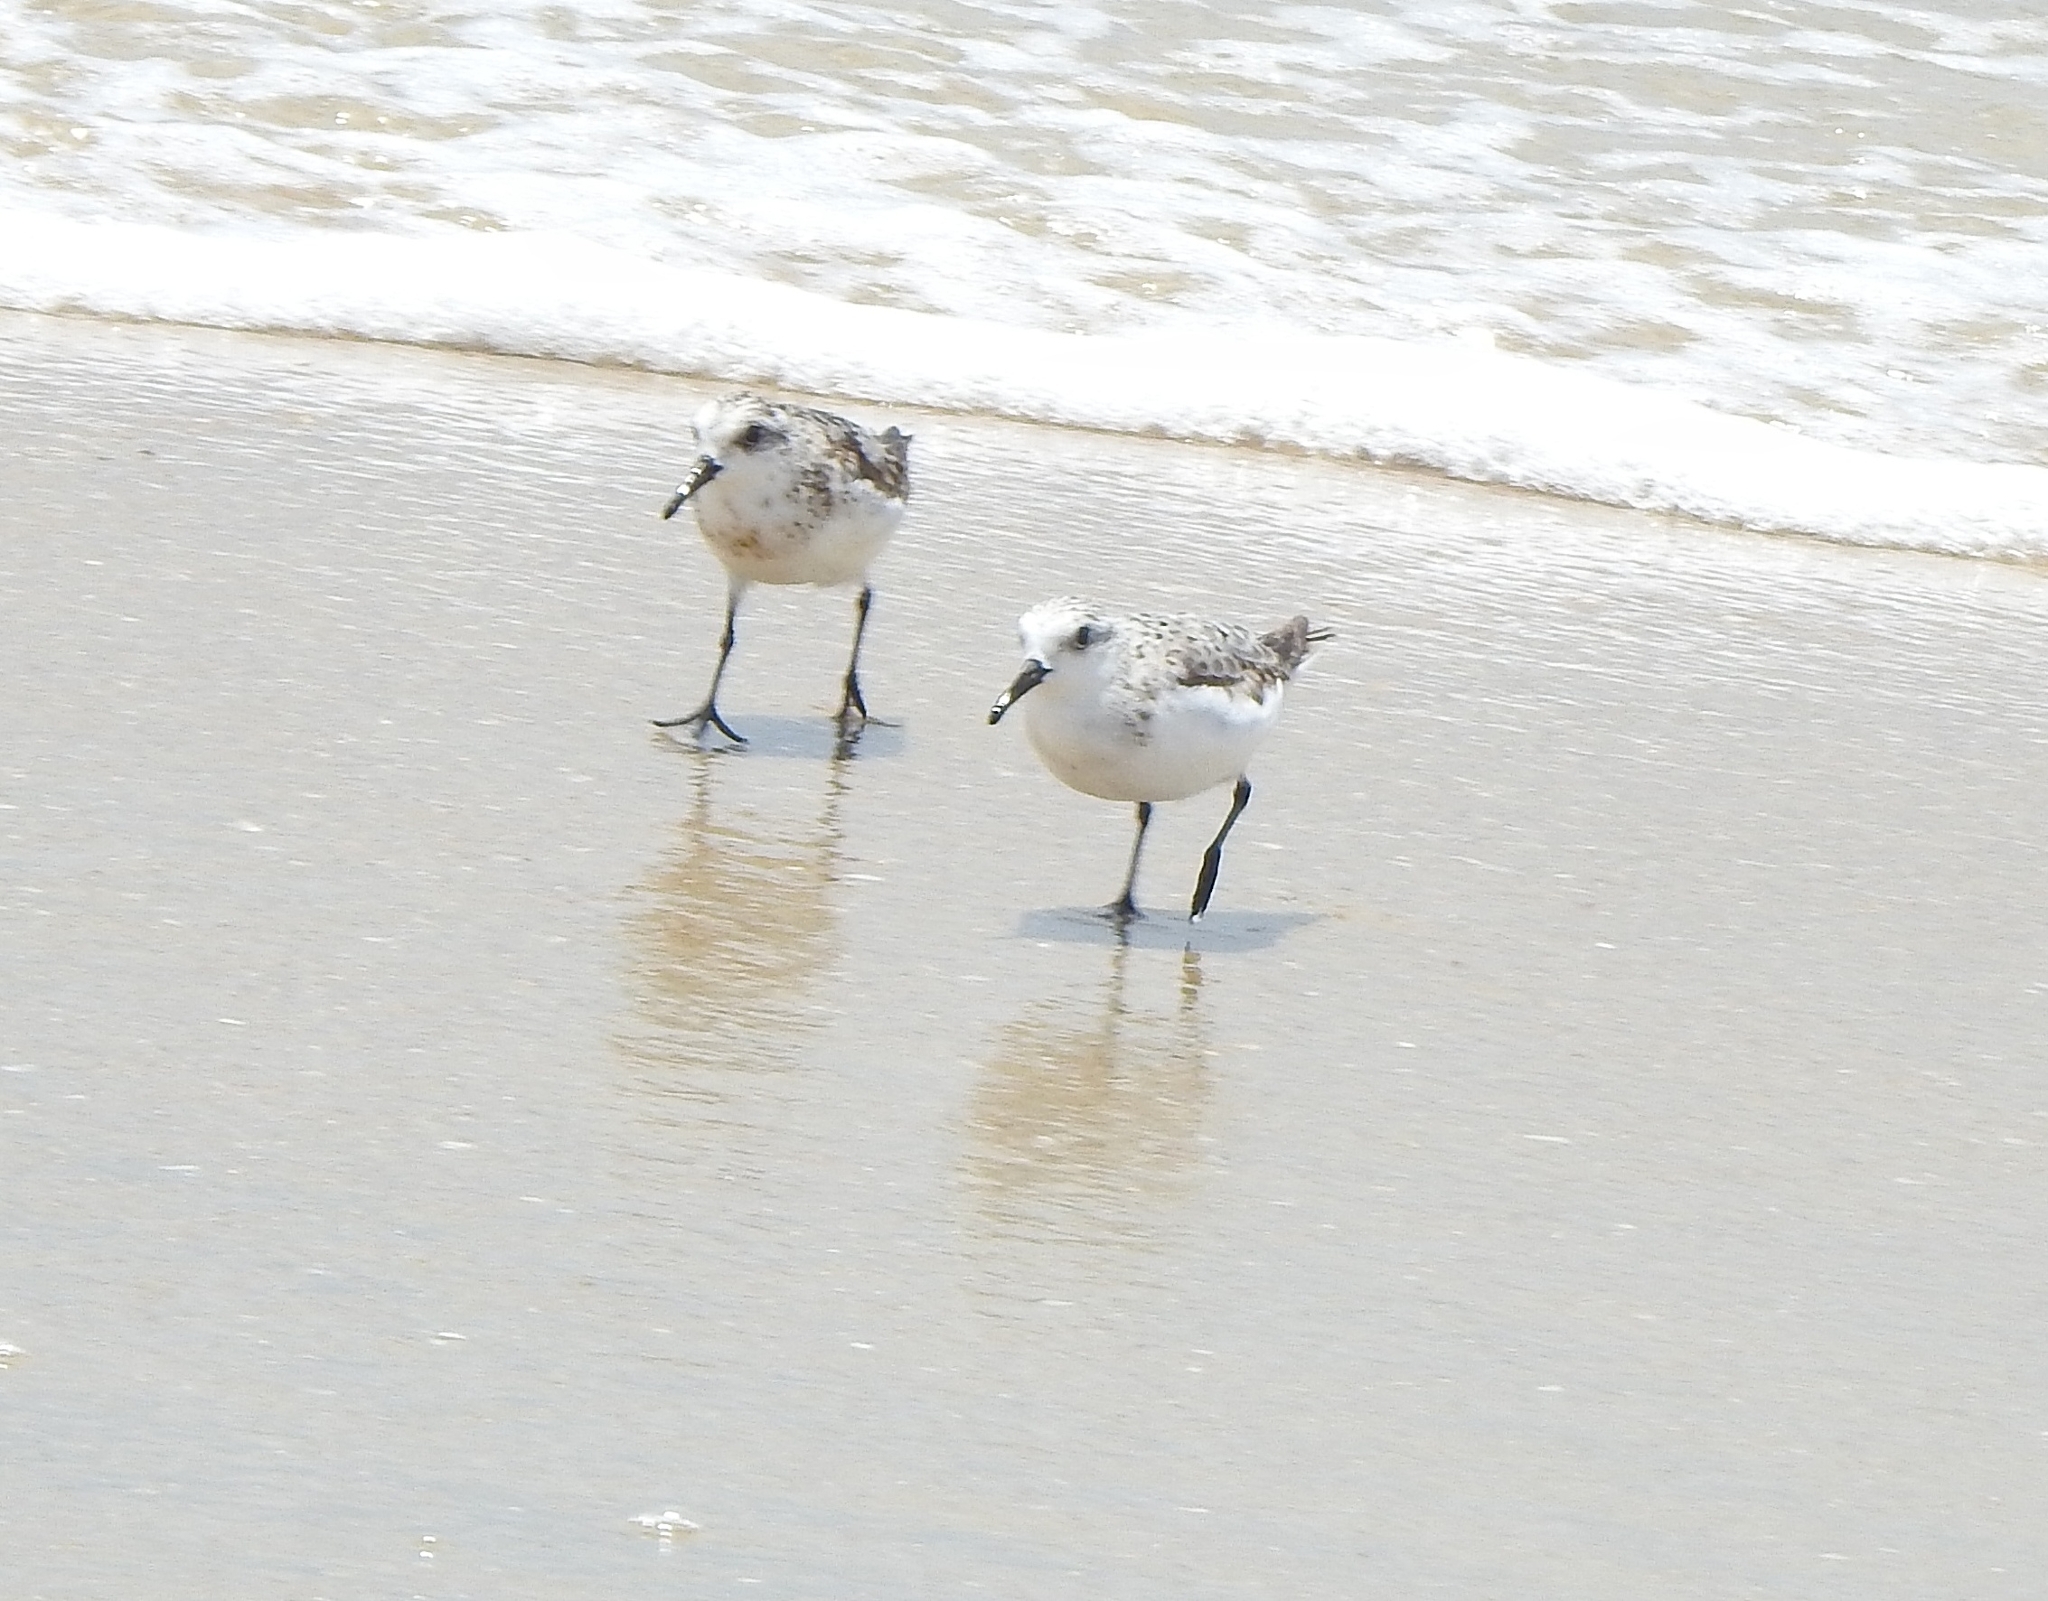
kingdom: Animalia
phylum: Chordata
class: Aves
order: Charadriiformes
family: Scolopacidae
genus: Calidris
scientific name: Calidris alba
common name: Sanderling
